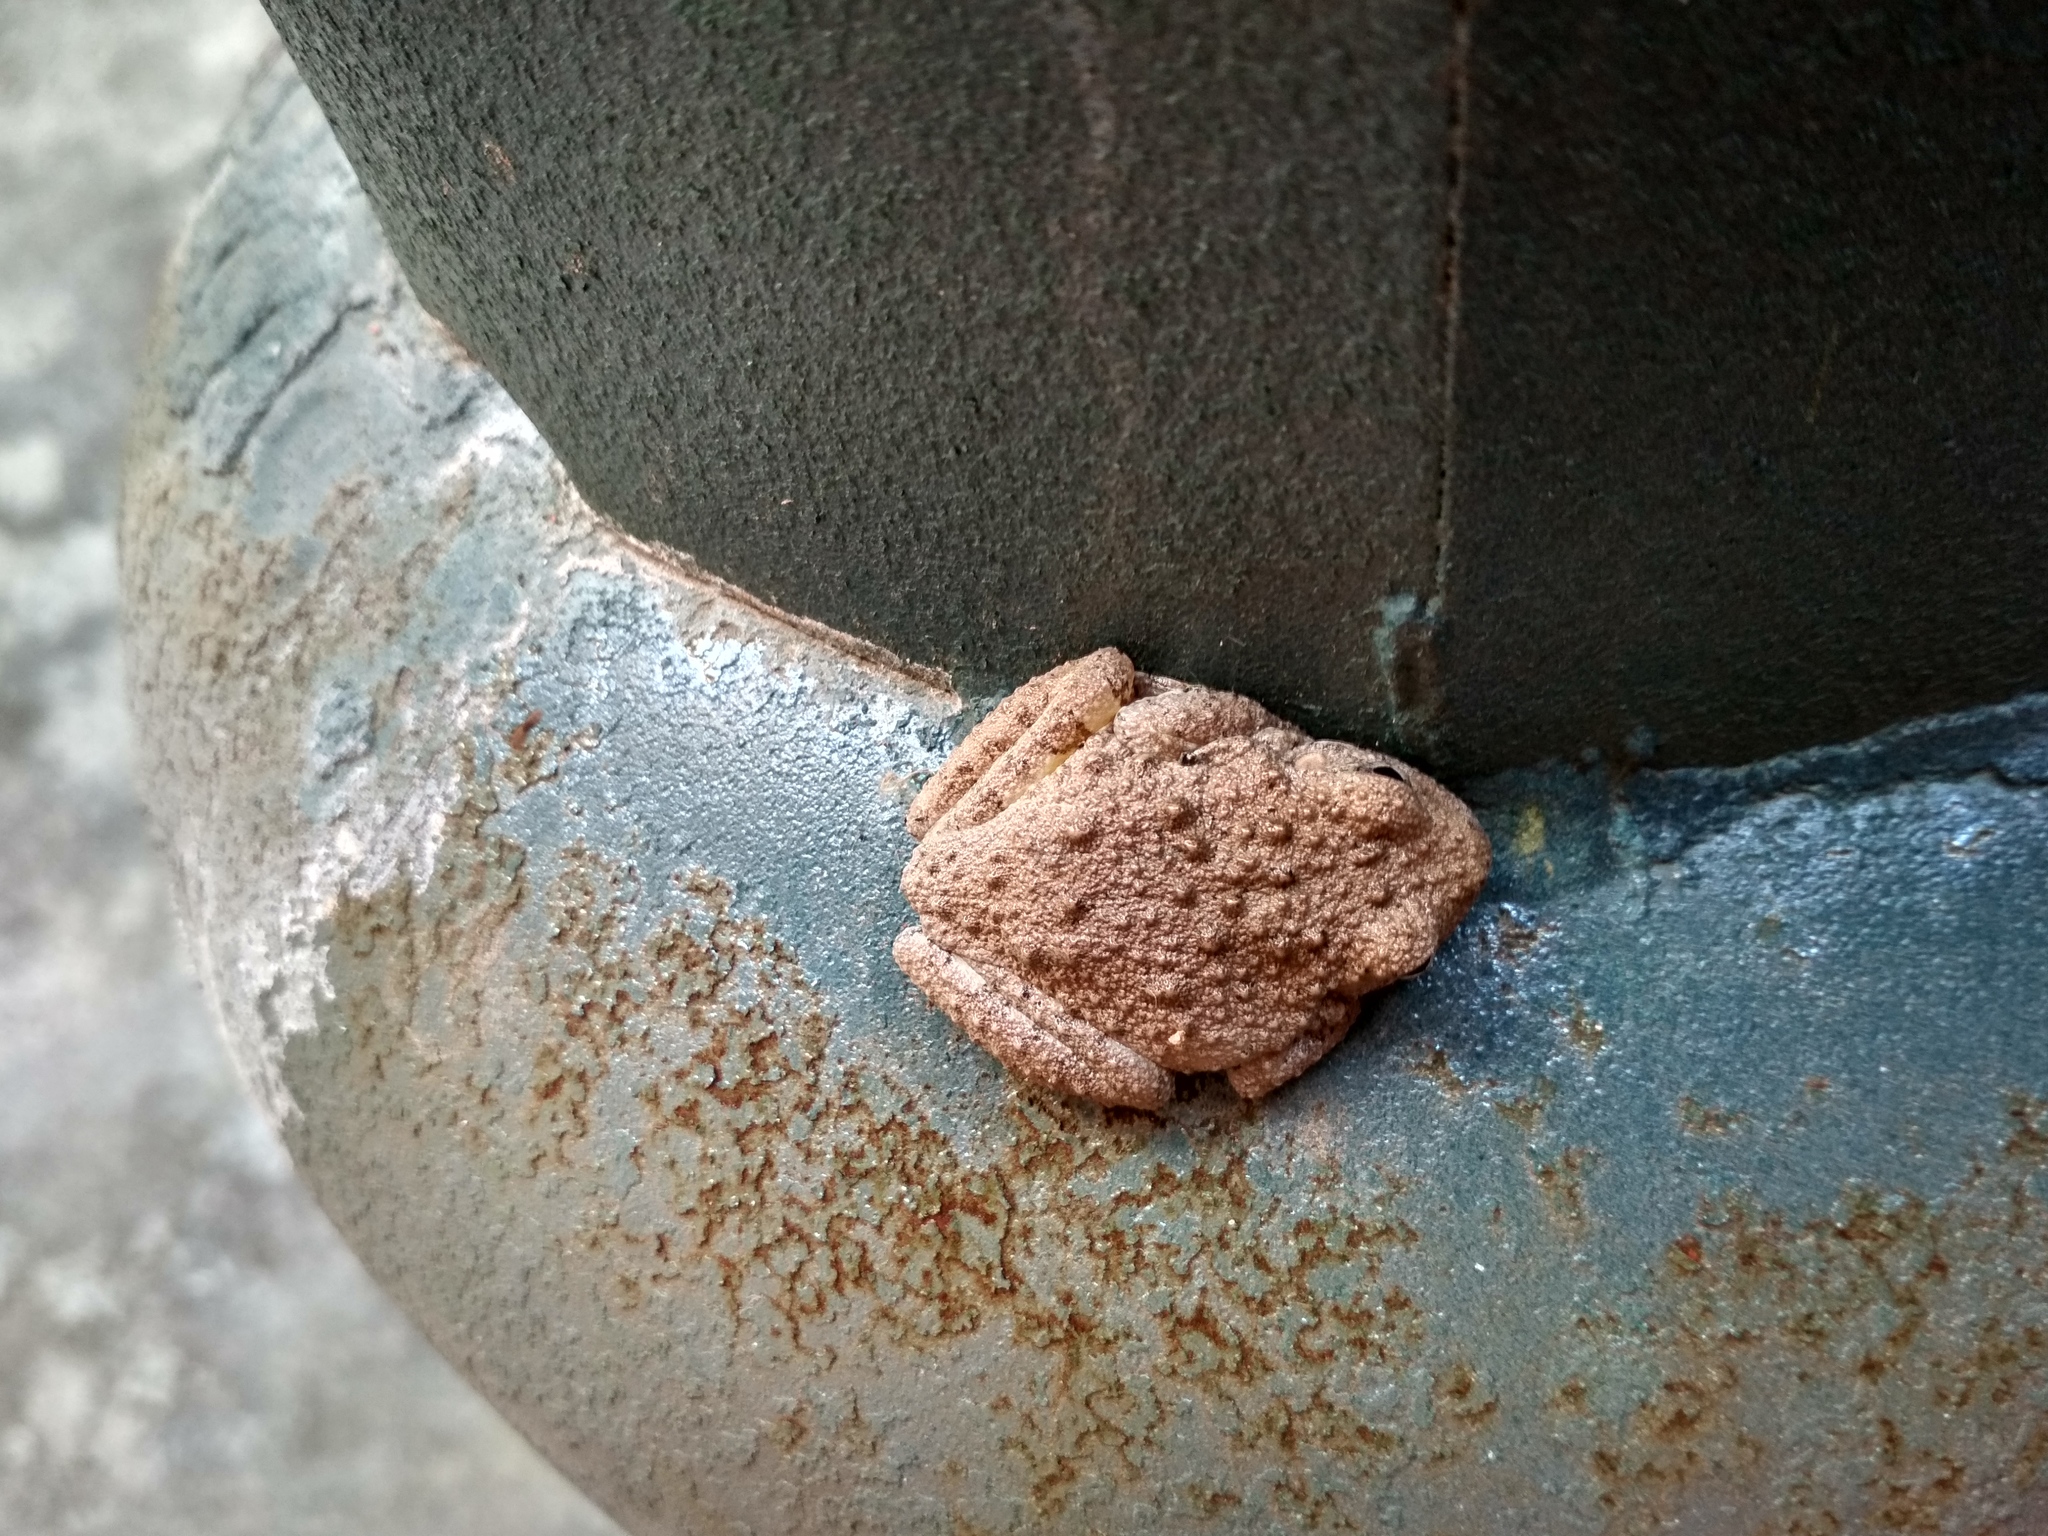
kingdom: Animalia
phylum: Chordata
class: Amphibia
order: Anura
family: Hylidae
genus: Dryophytes
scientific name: Dryophytes arenicolor
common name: Canyon treefrog
